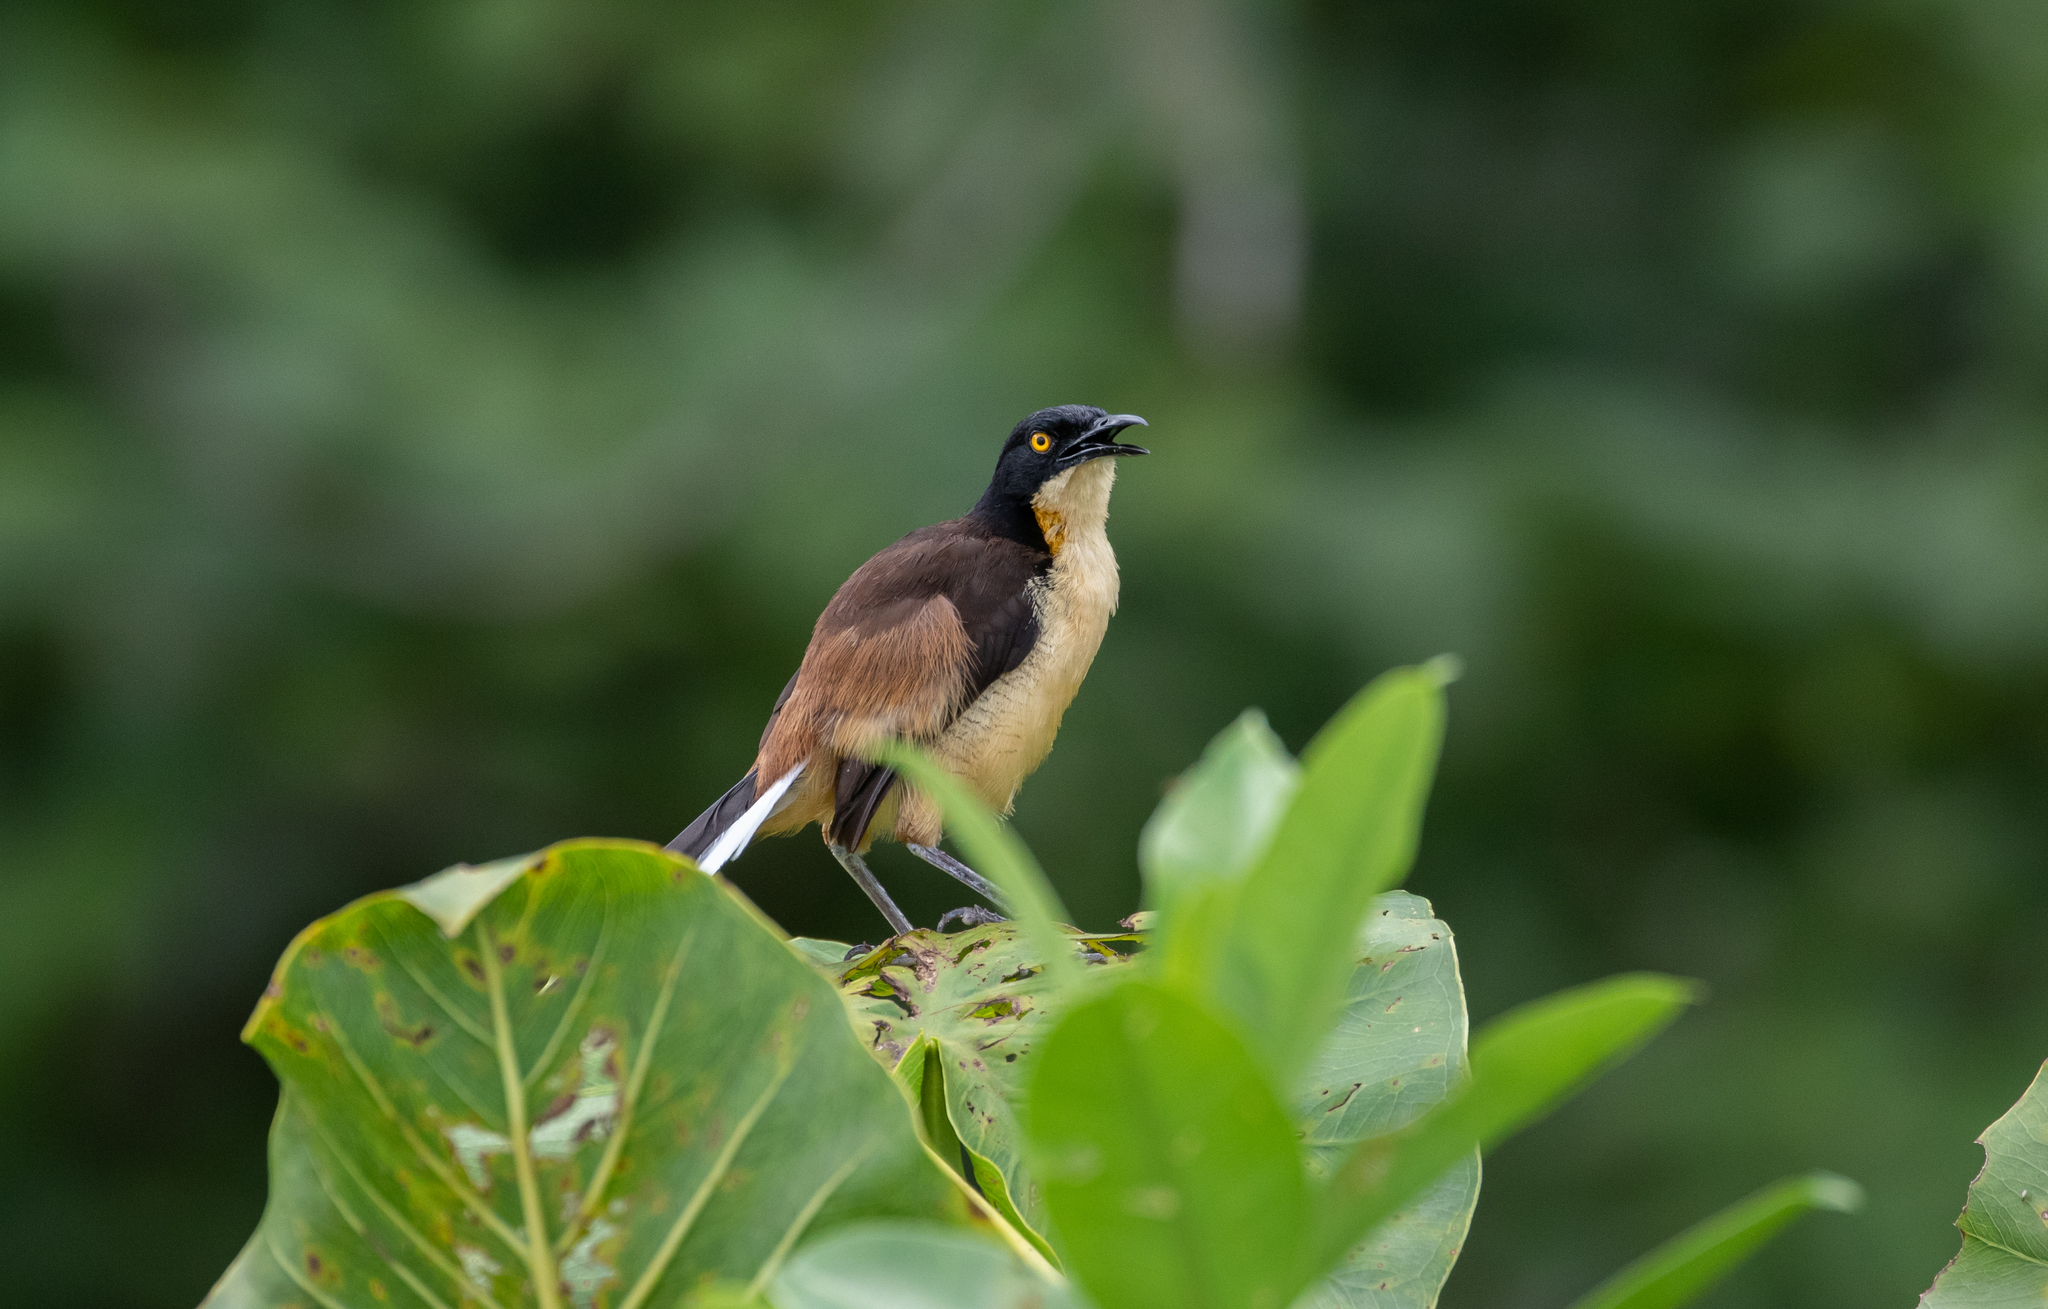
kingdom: Animalia
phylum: Chordata
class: Aves
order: Passeriformes
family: Donacobiidae
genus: Donacobius
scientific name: Donacobius atricapilla
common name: Black-capped donacobius
